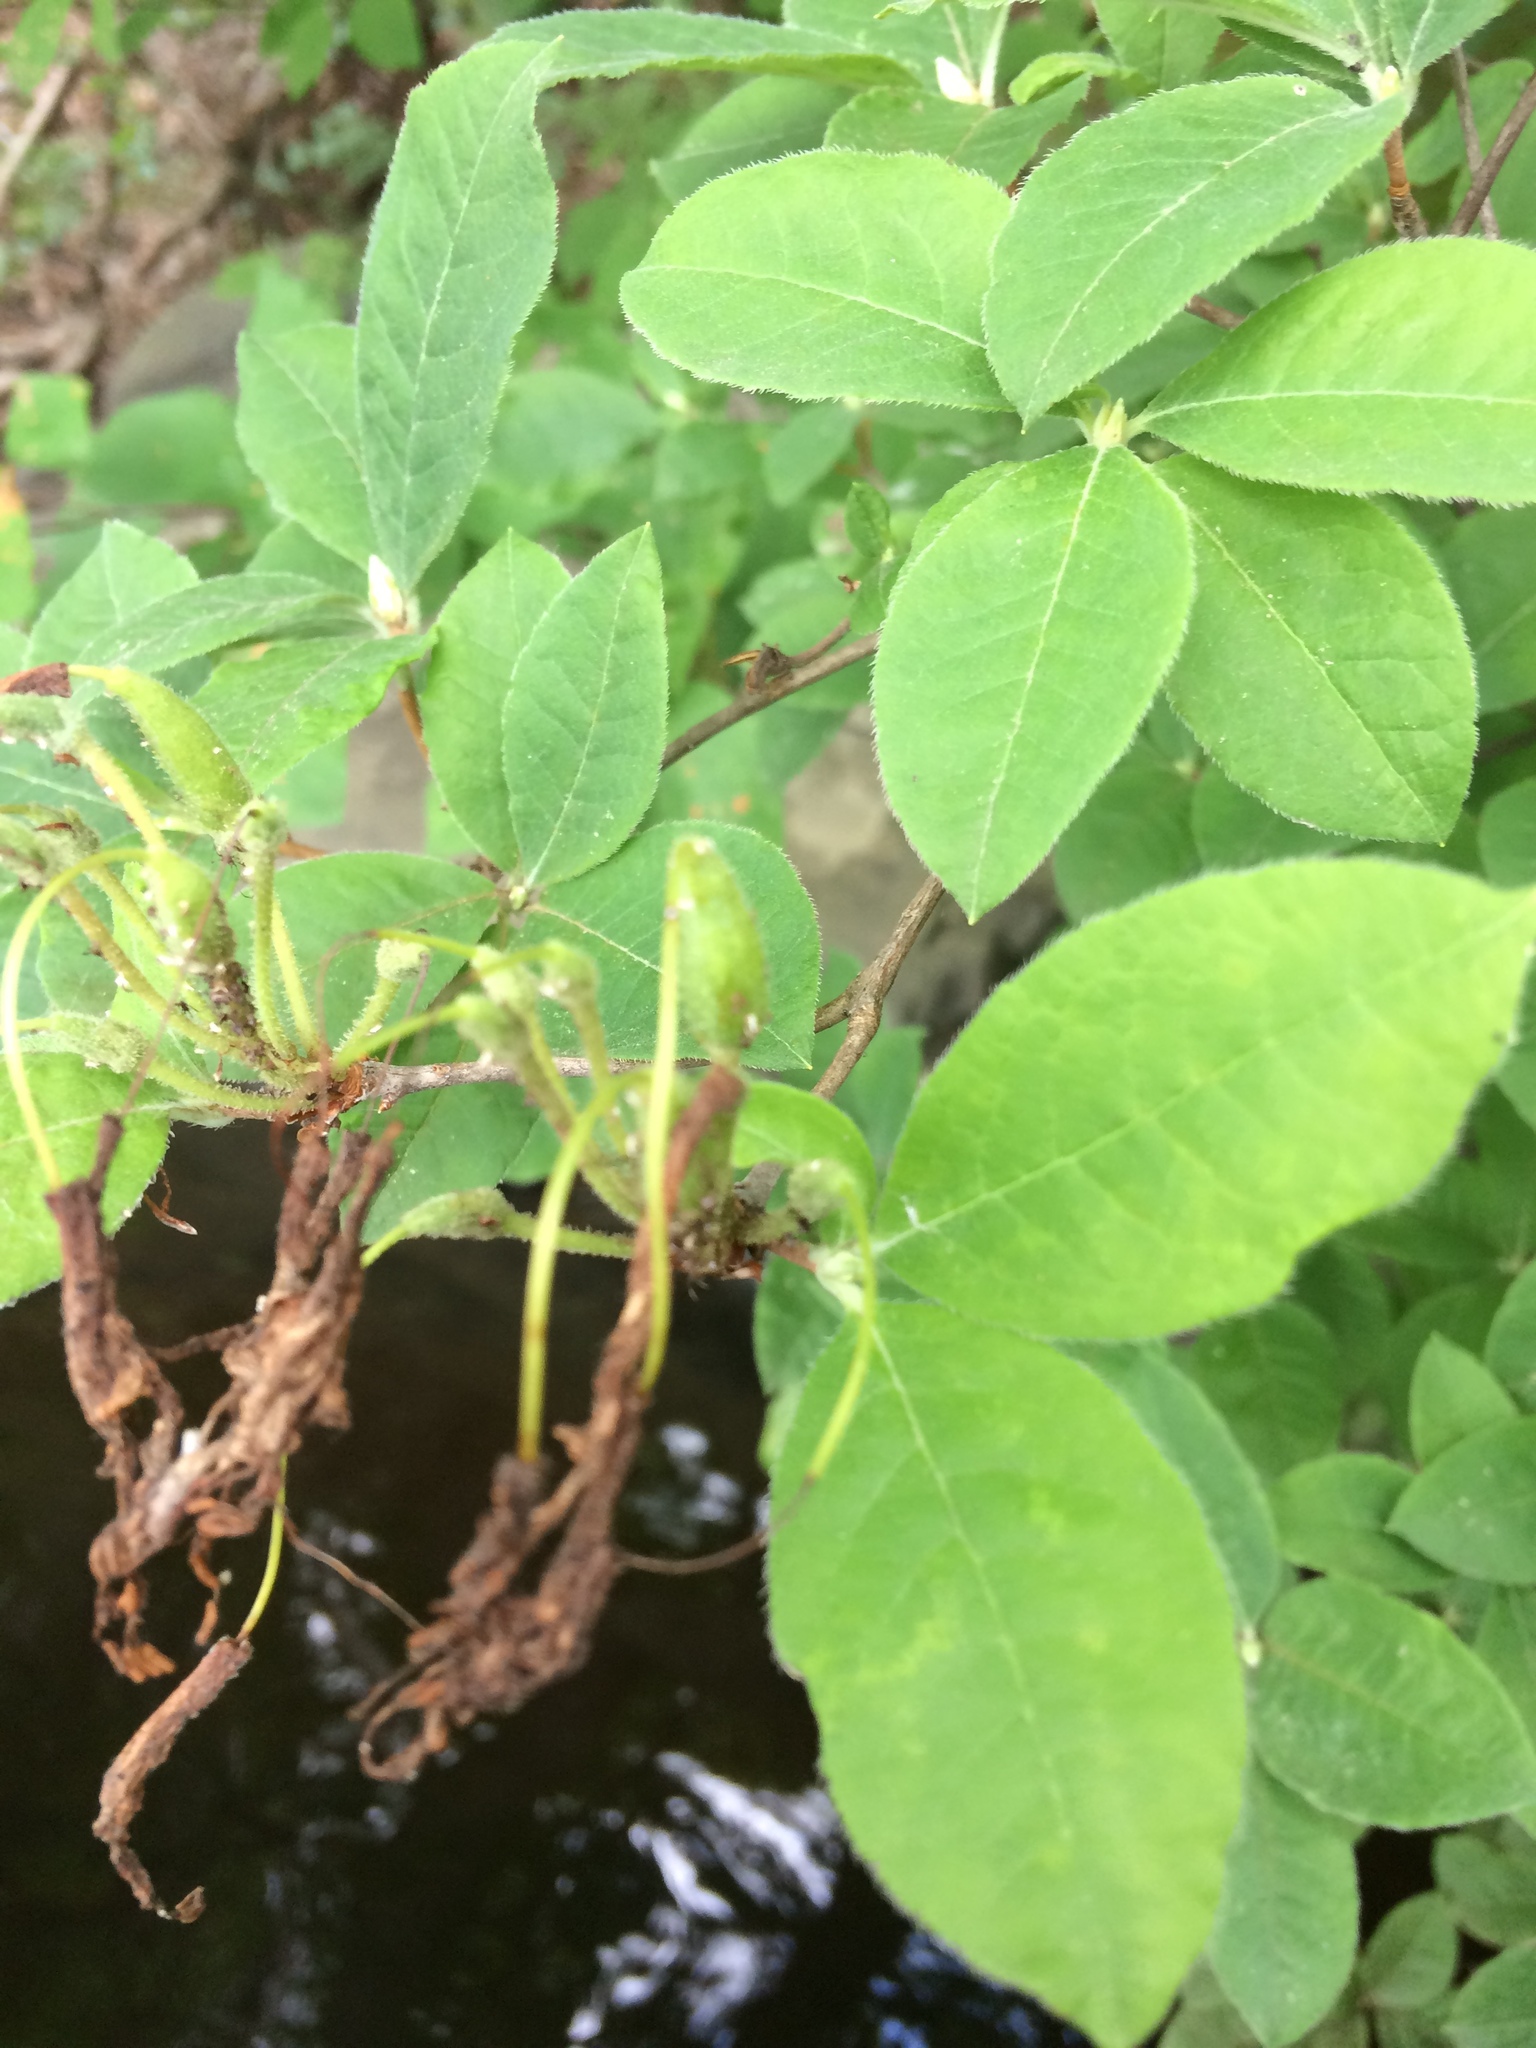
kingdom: Plantae
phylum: Tracheophyta
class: Magnoliopsida
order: Ericales
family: Ericaceae
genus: Rhododendron
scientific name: Rhododendron roseum
